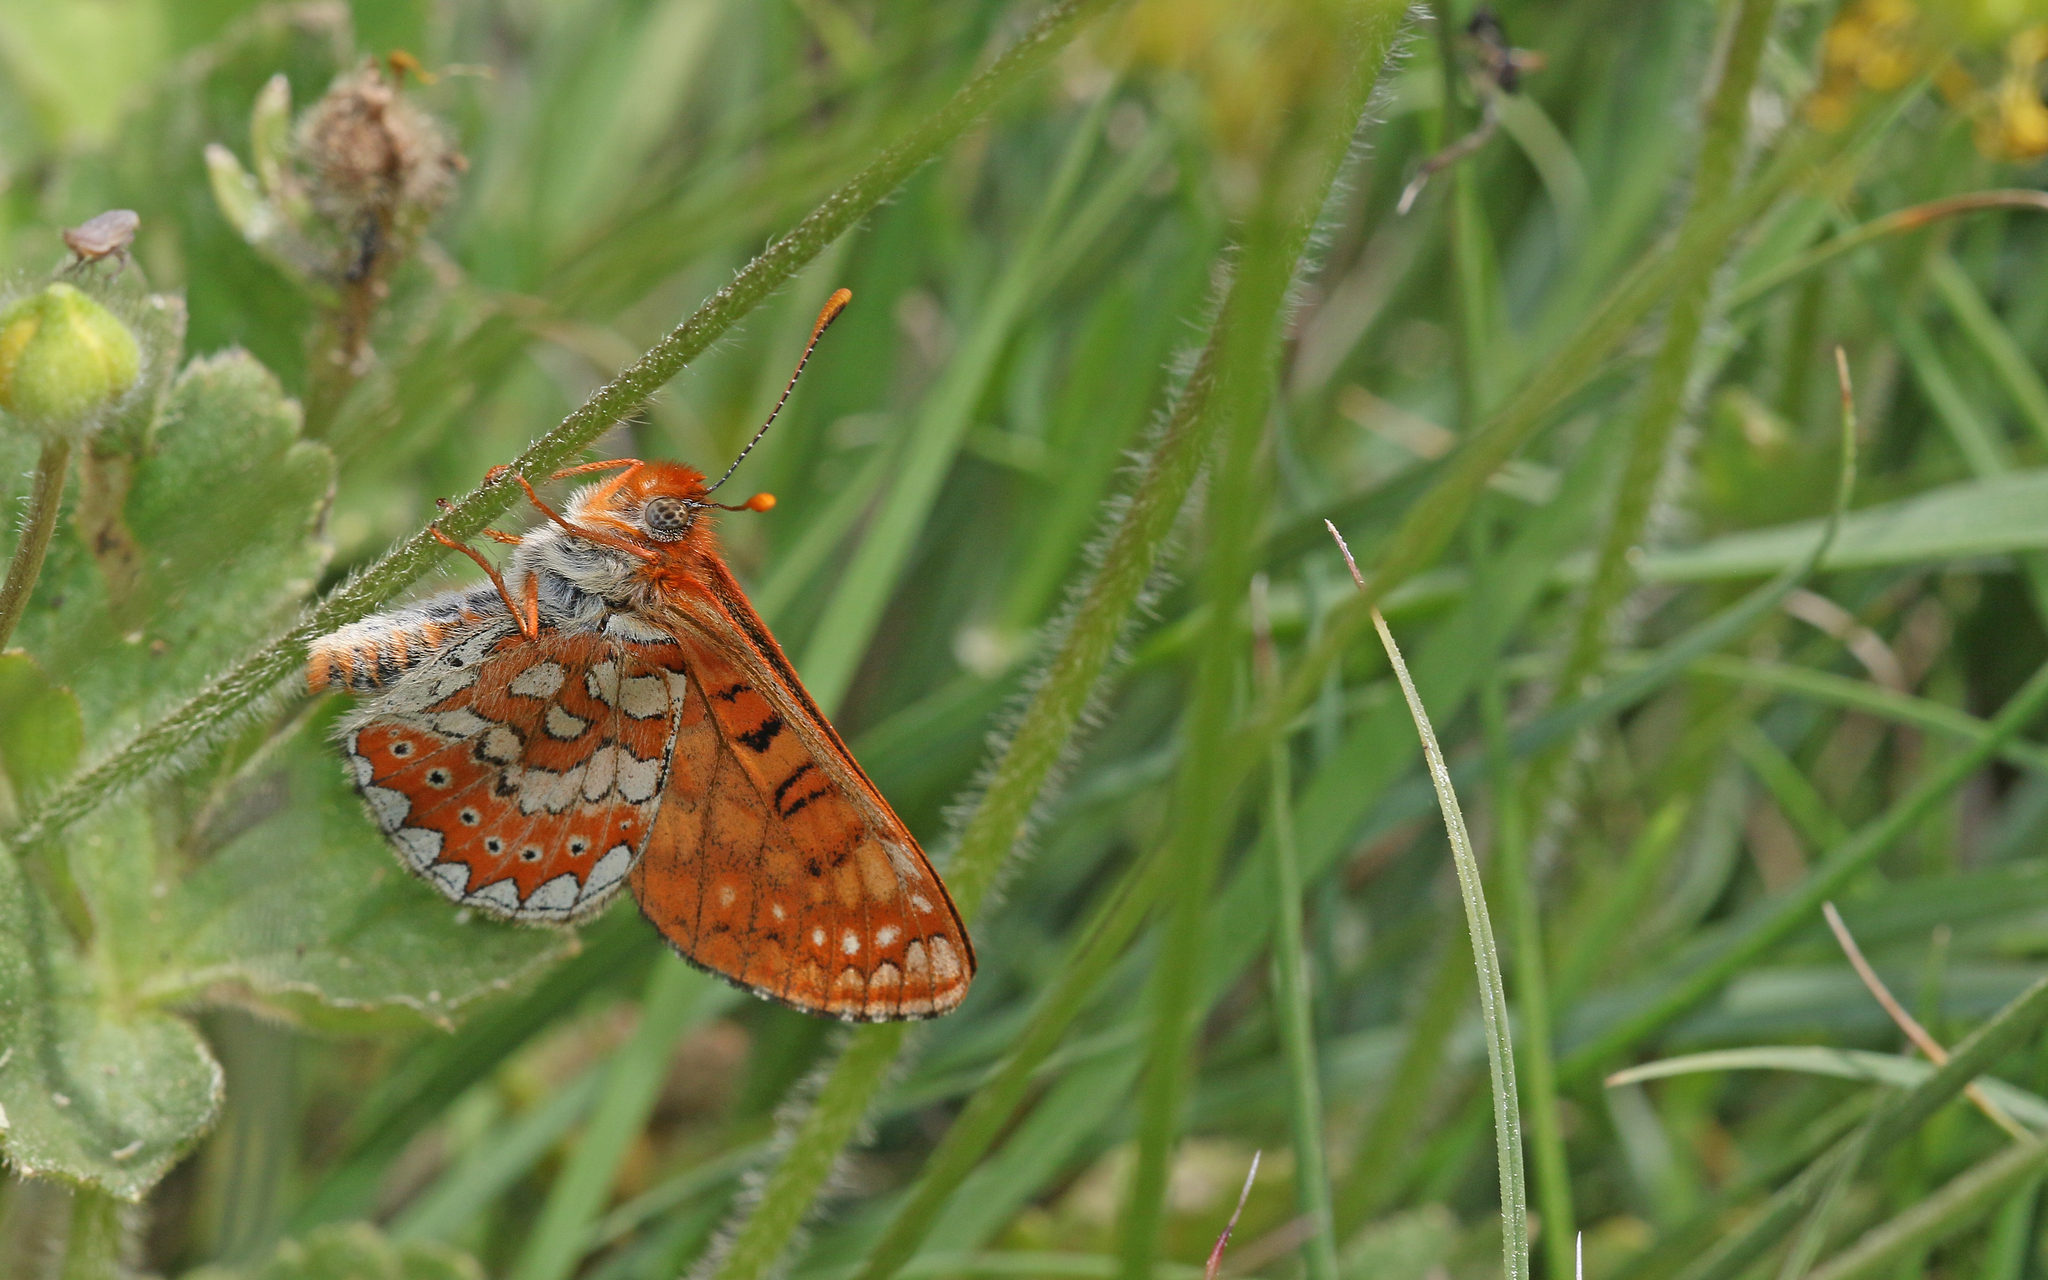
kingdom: Animalia
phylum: Arthropoda
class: Insecta
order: Lepidoptera
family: Nymphalidae
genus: Euphydryas
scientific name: Euphydryas aurinia
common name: Marsh fritillary
